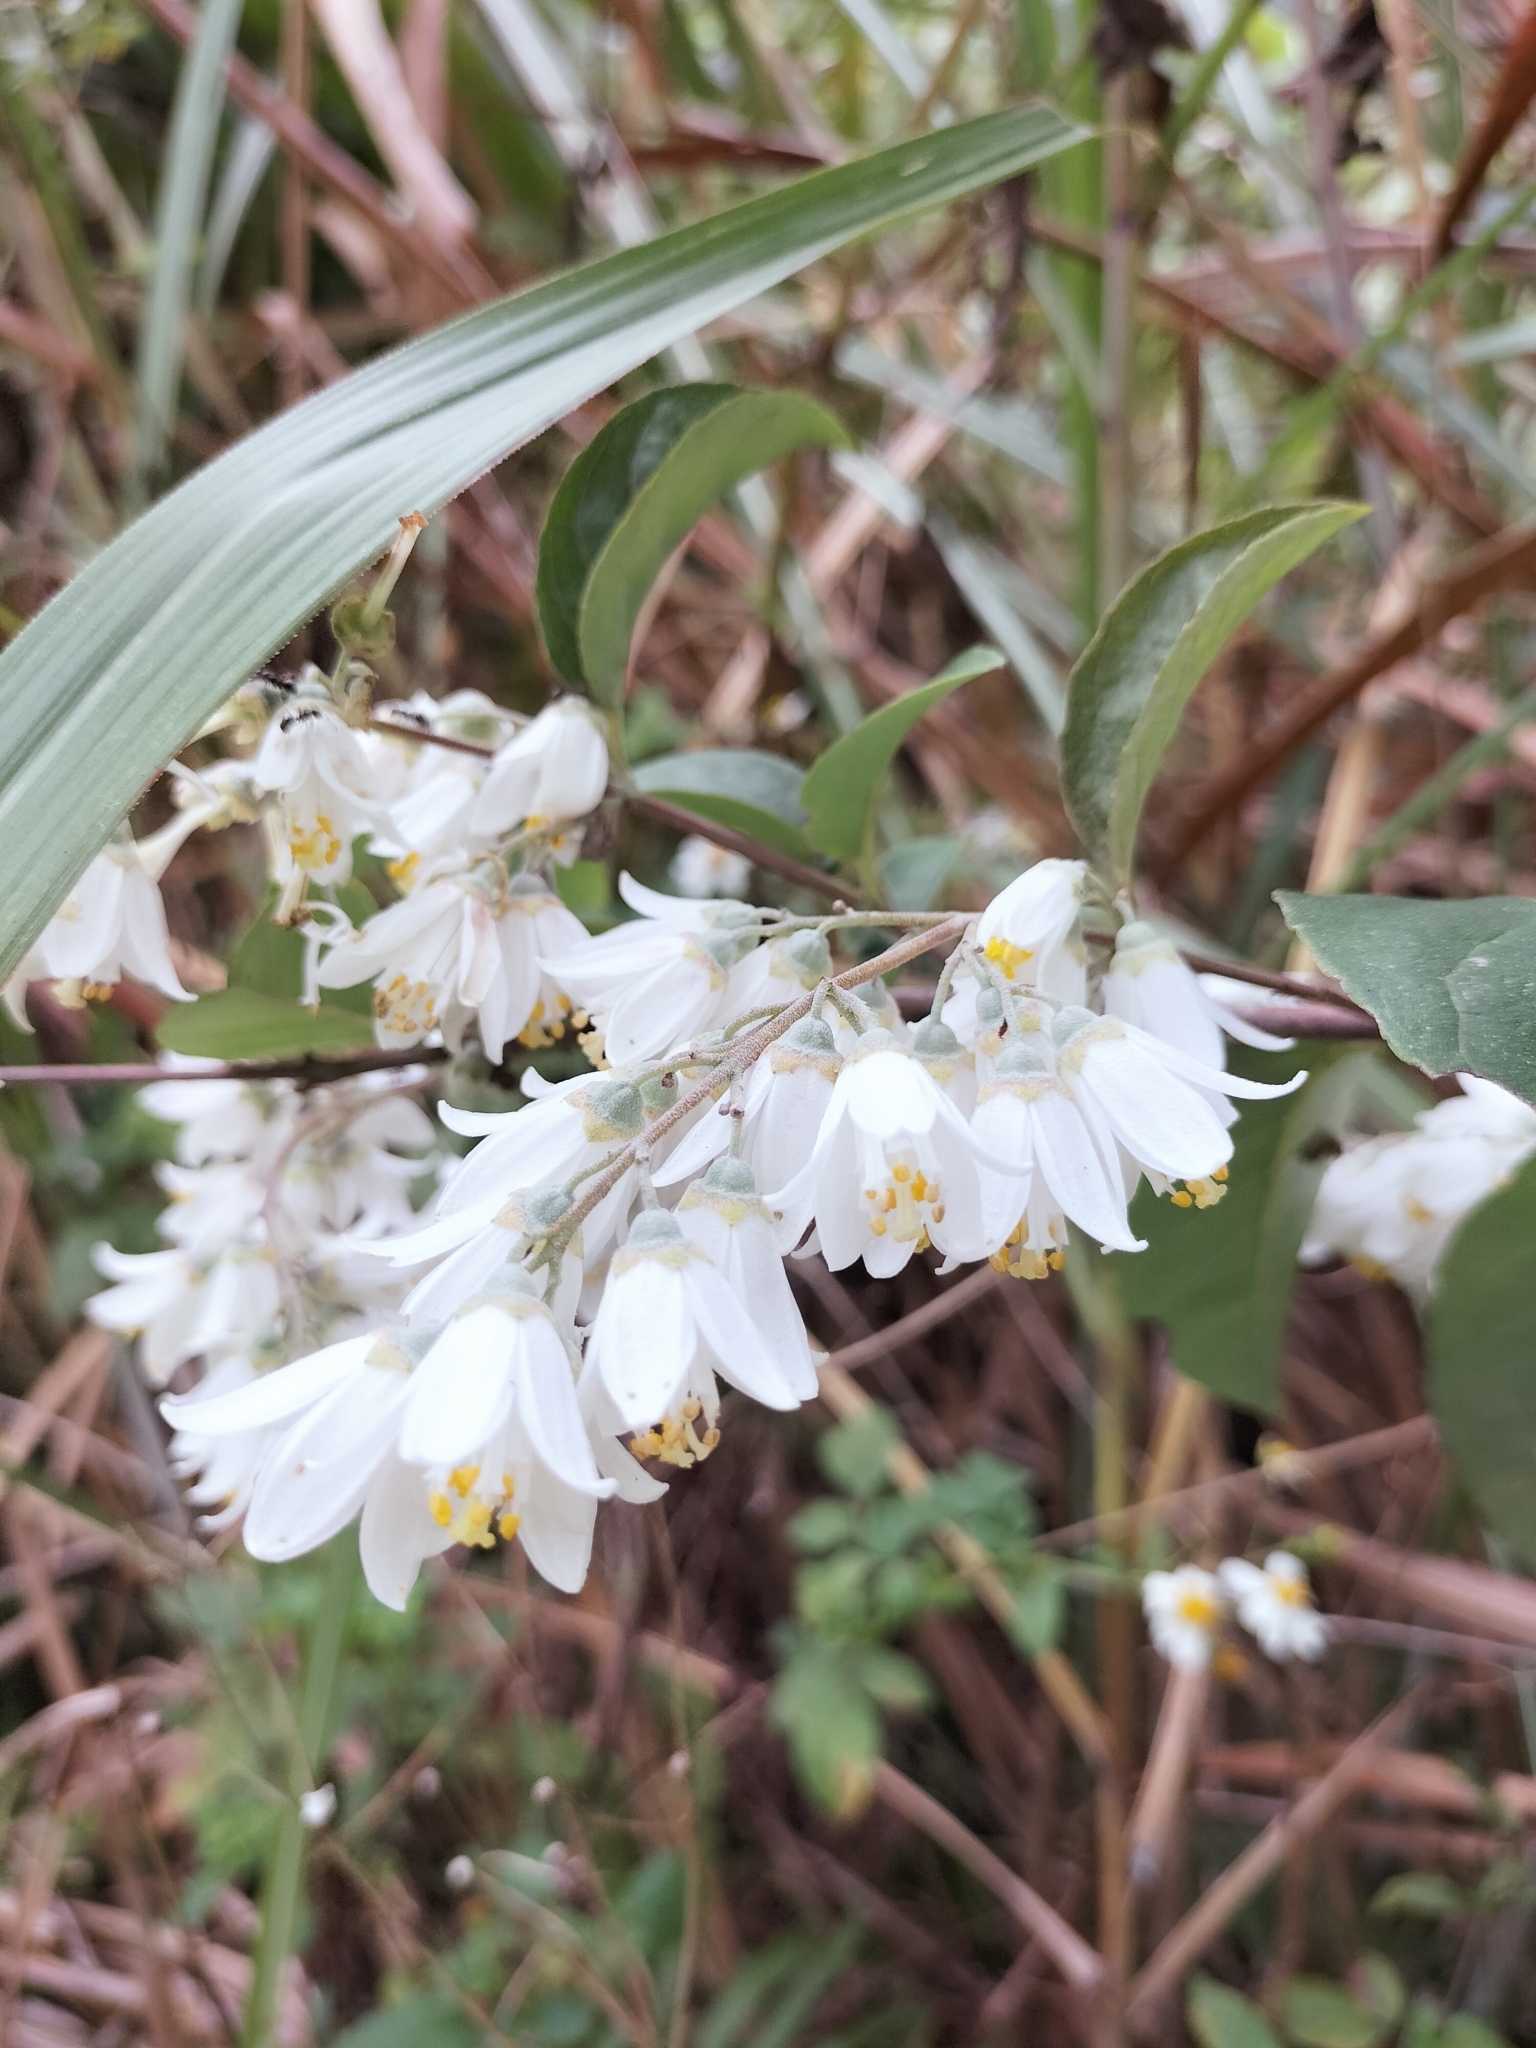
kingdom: Plantae
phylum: Tracheophyta
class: Magnoliopsida
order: Cornales
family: Hydrangeaceae
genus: Deutzia
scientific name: Deutzia pulchra
